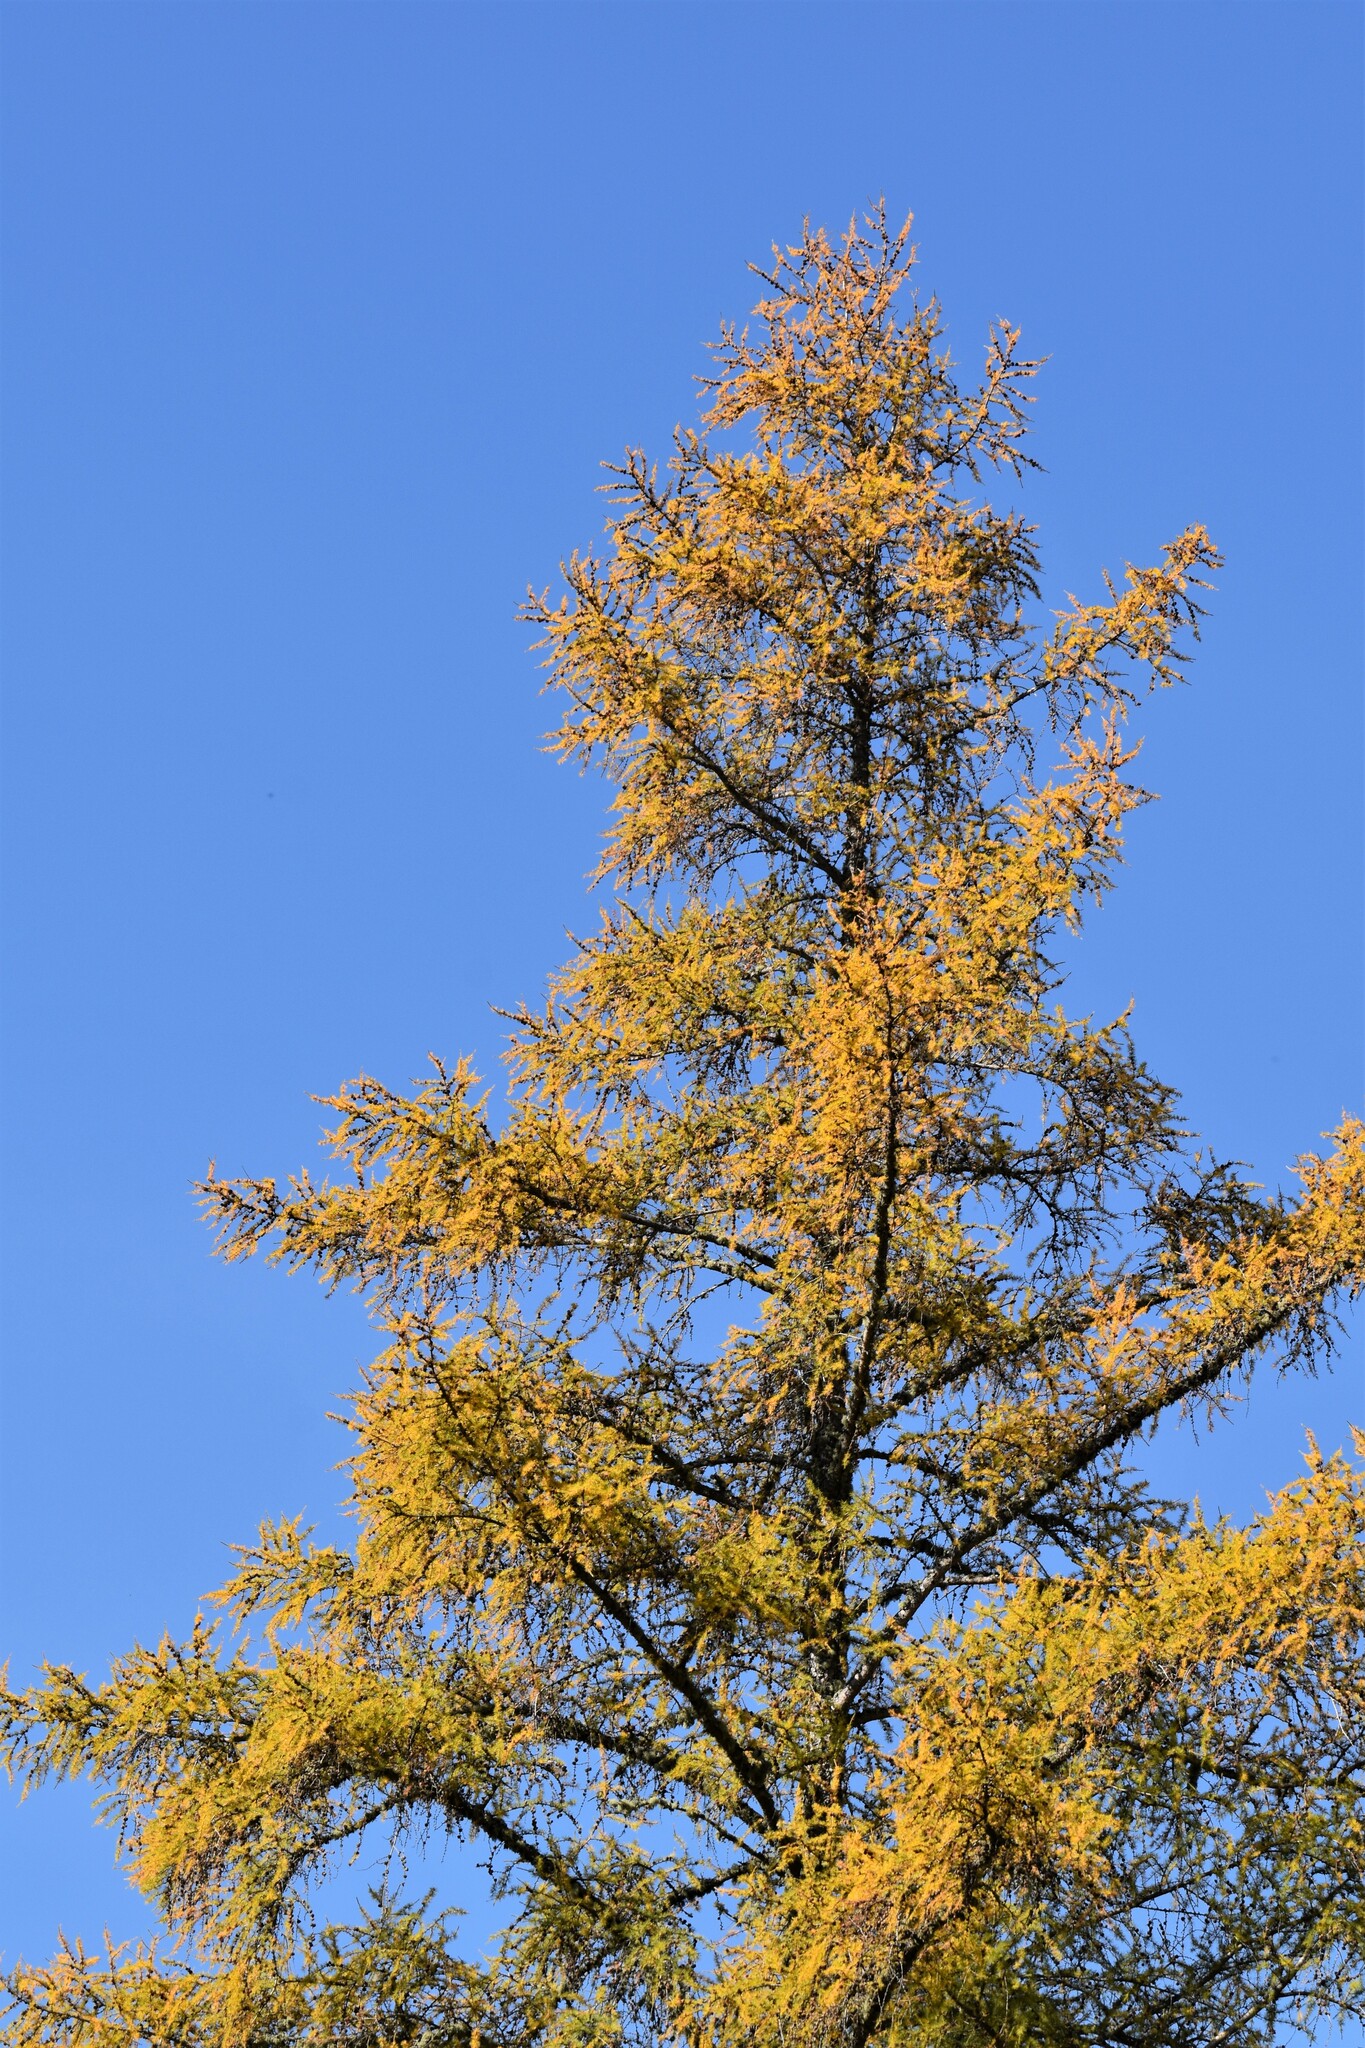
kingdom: Plantae
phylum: Tracheophyta
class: Pinopsida
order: Pinales
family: Pinaceae
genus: Larix
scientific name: Larix laricina
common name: American larch
